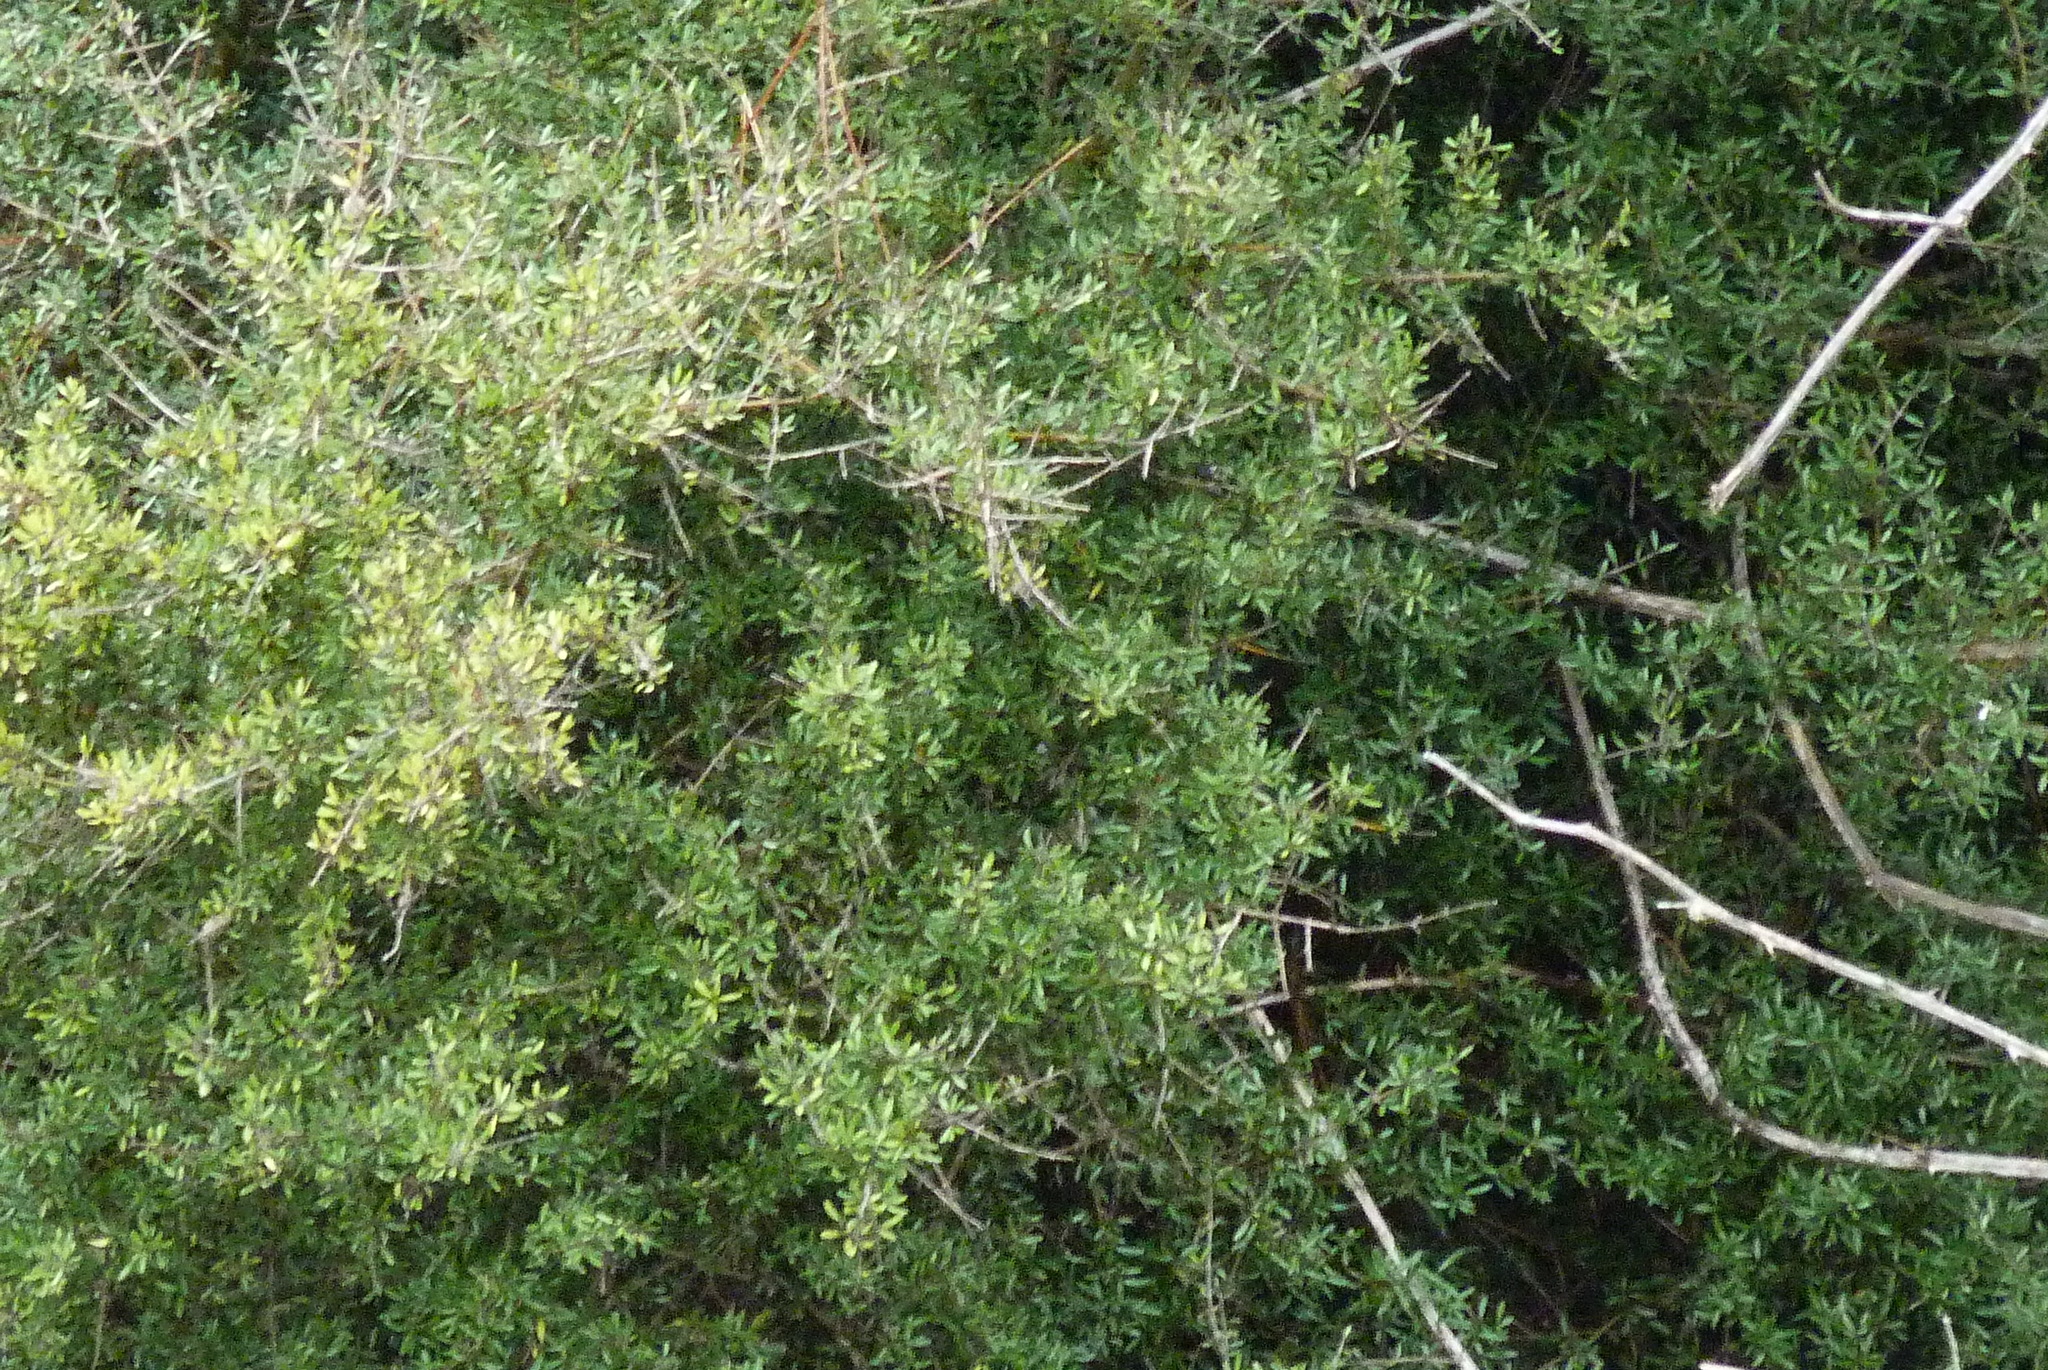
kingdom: Plantae
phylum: Tracheophyta
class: Magnoliopsida
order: Gentianales
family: Rubiaceae
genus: Coprosma
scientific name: Coprosma propinqua
